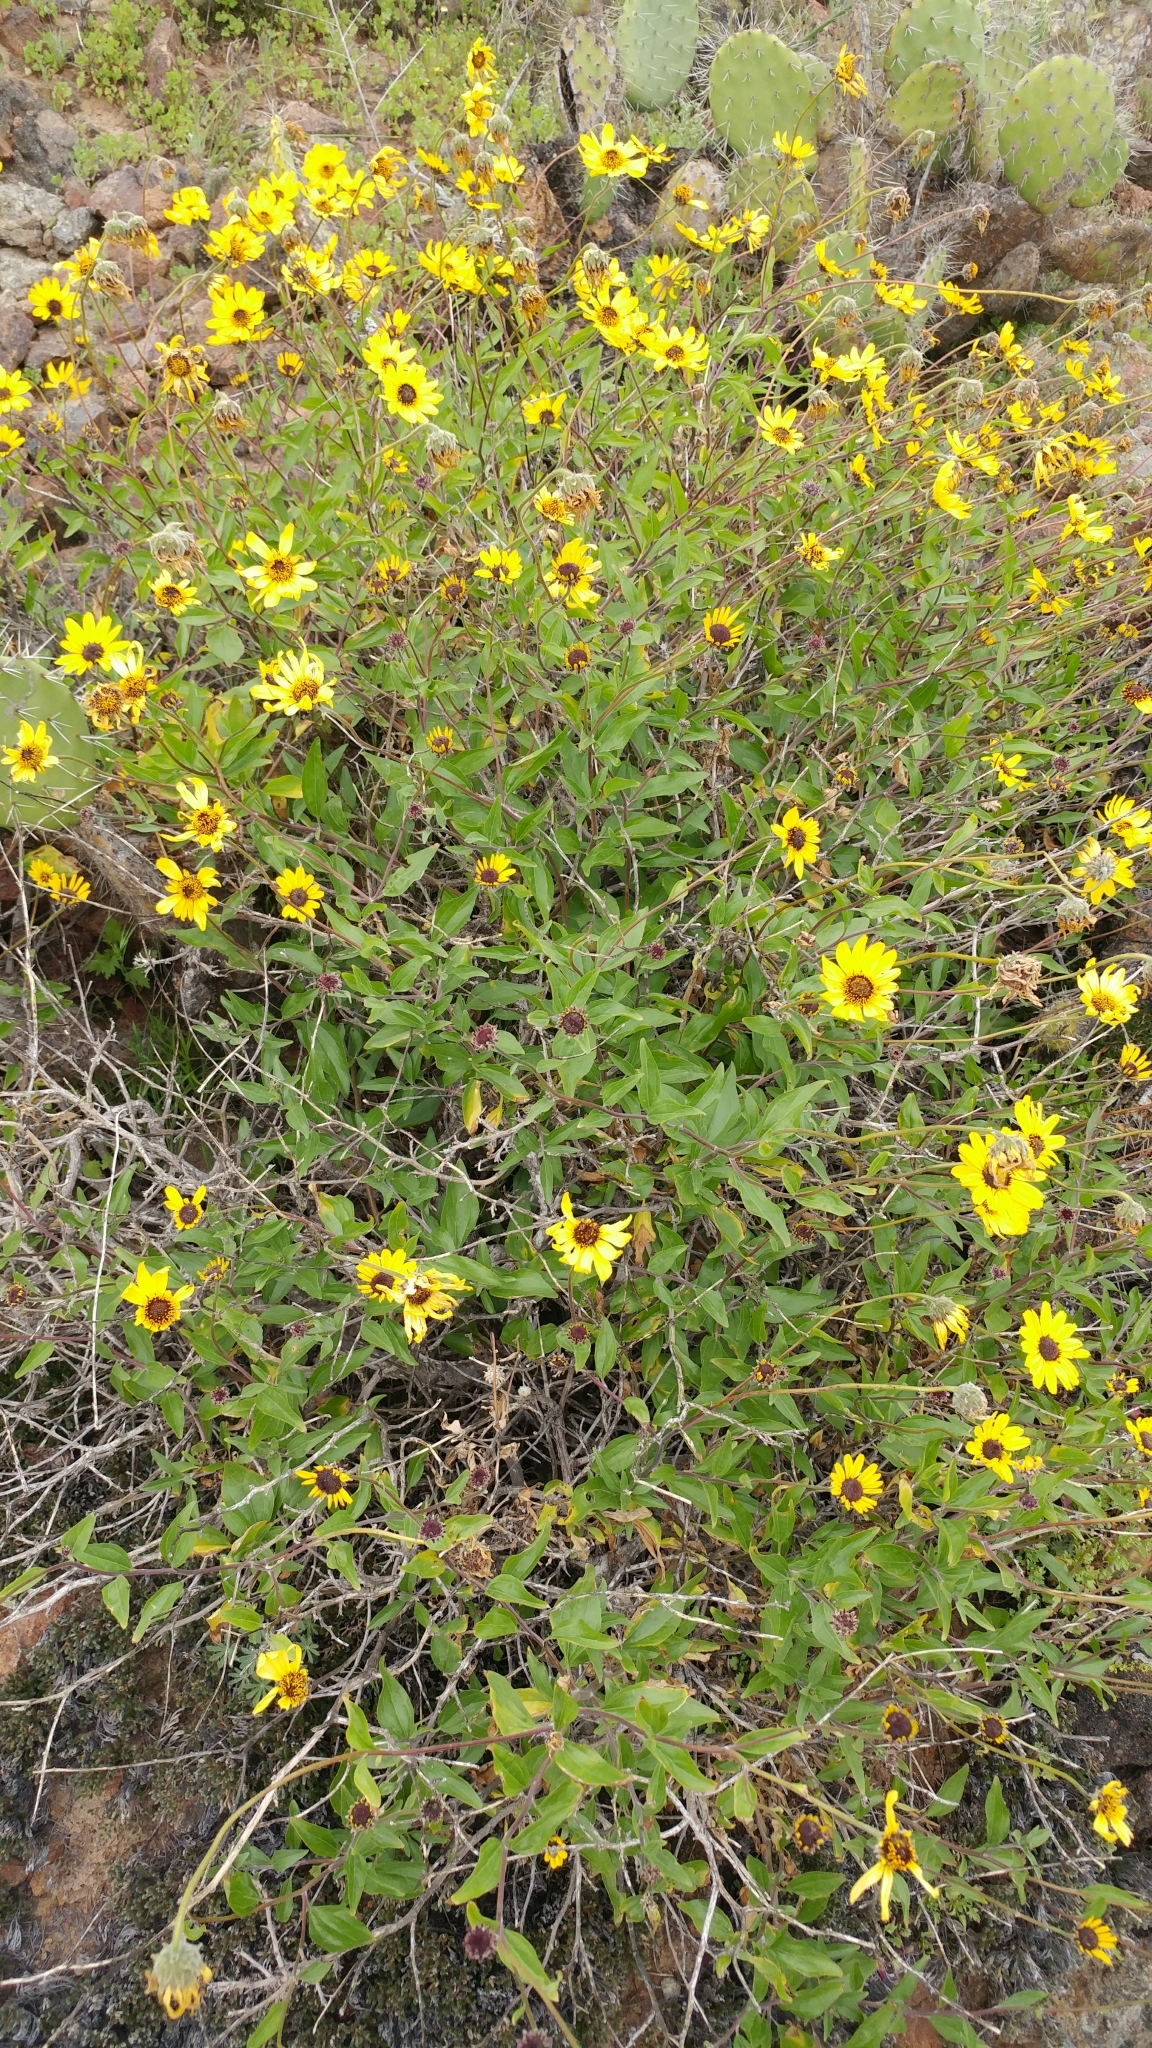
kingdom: Plantae
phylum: Tracheophyta
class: Magnoliopsida
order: Asterales
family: Asteraceae
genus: Encelia
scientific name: Encelia californica
